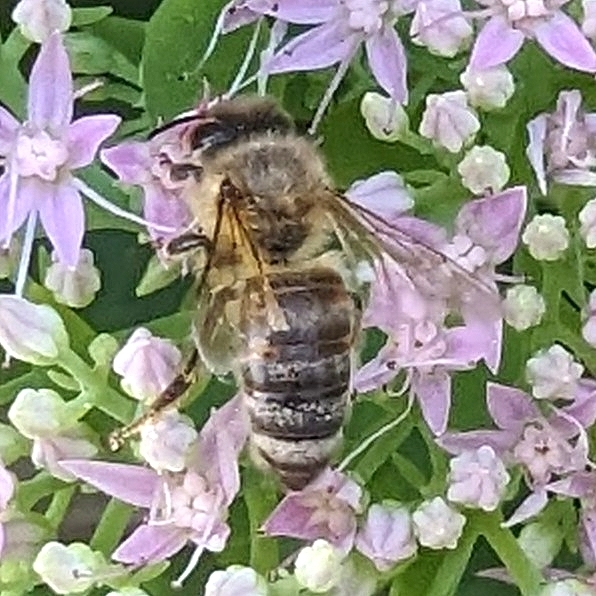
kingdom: Animalia
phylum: Arthropoda
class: Insecta
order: Hymenoptera
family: Apidae
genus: Apis
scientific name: Apis mellifera
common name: Honey bee
